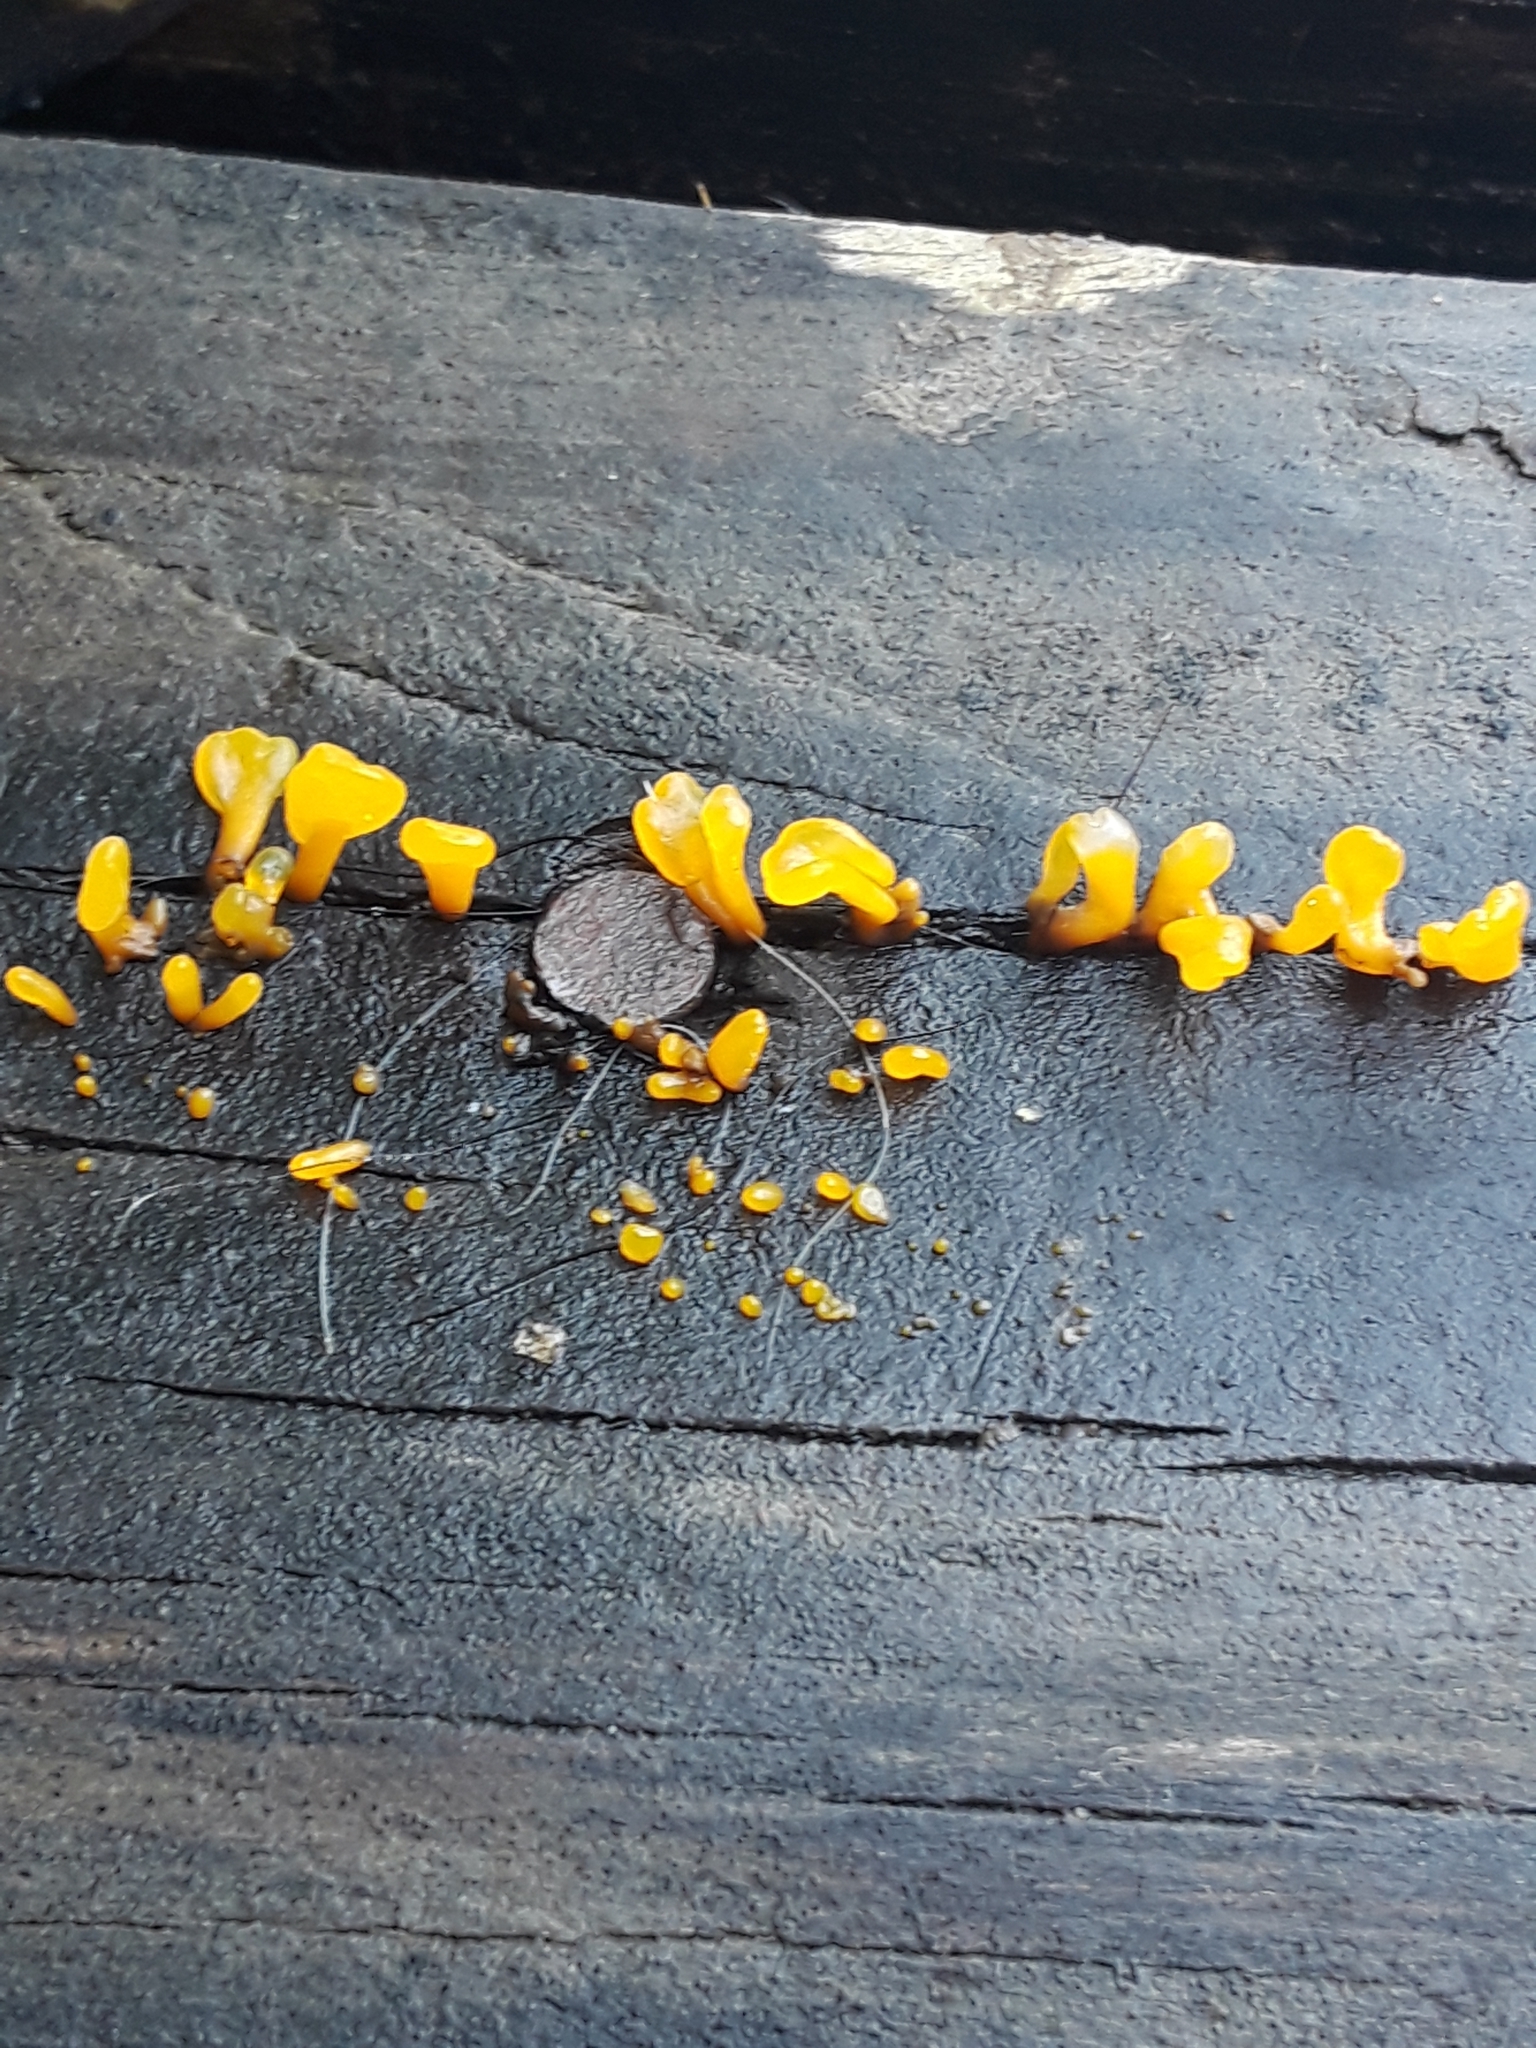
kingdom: Fungi
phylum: Basidiomycota
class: Dacrymycetes
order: Dacrymycetales
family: Dacrymycetaceae
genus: Dacrymyces
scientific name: Dacrymyces spathularius
